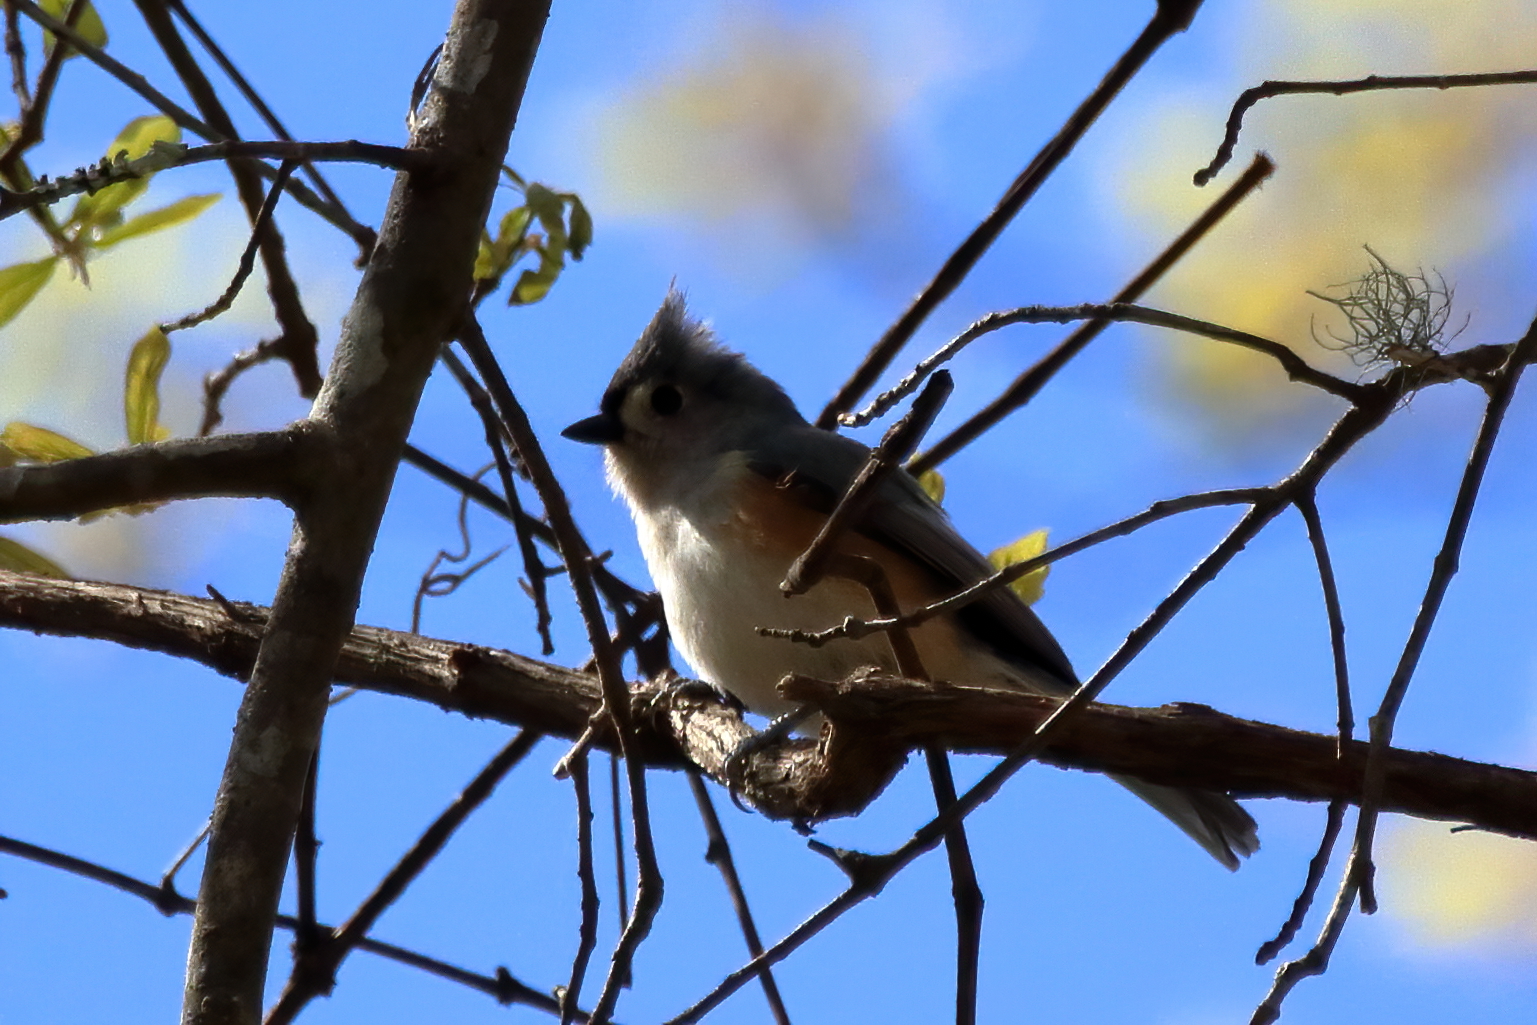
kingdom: Animalia
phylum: Chordata
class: Aves
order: Passeriformes
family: Paridae
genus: Baeolophus
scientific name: Baeolophus bicolor
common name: Tufted titmouse
